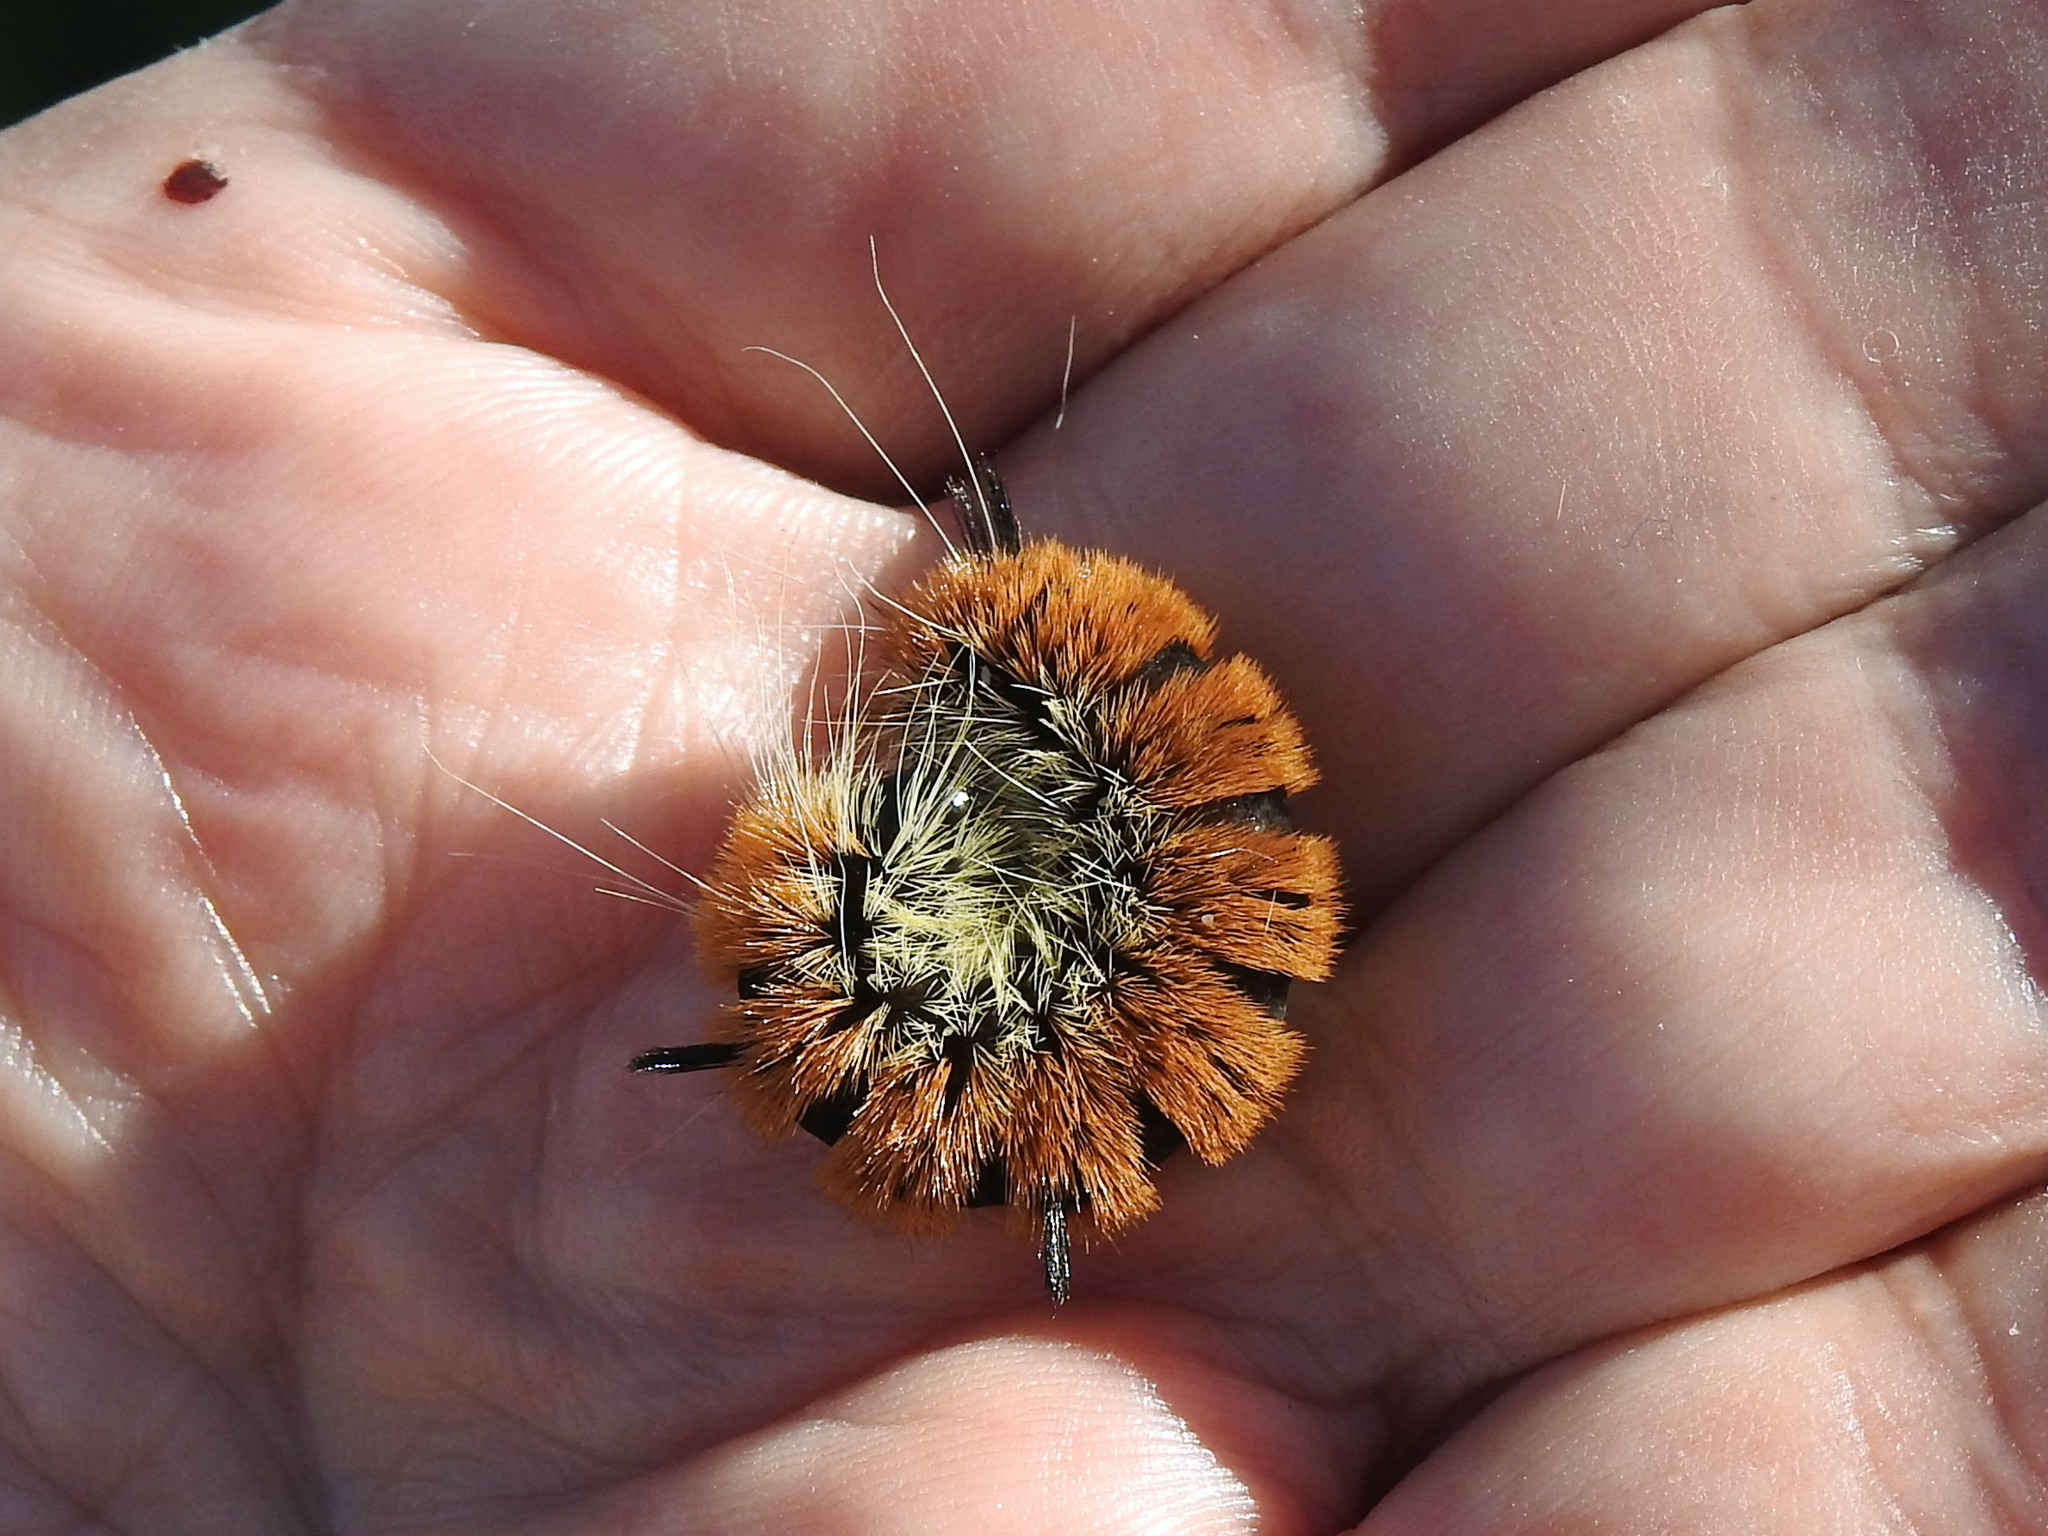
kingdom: Animalia
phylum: Arthropoda
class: Insecta
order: Lepidoptera
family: Noctuidae
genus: Acronicta
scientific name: Acronicta insita
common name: Large gray dagger
